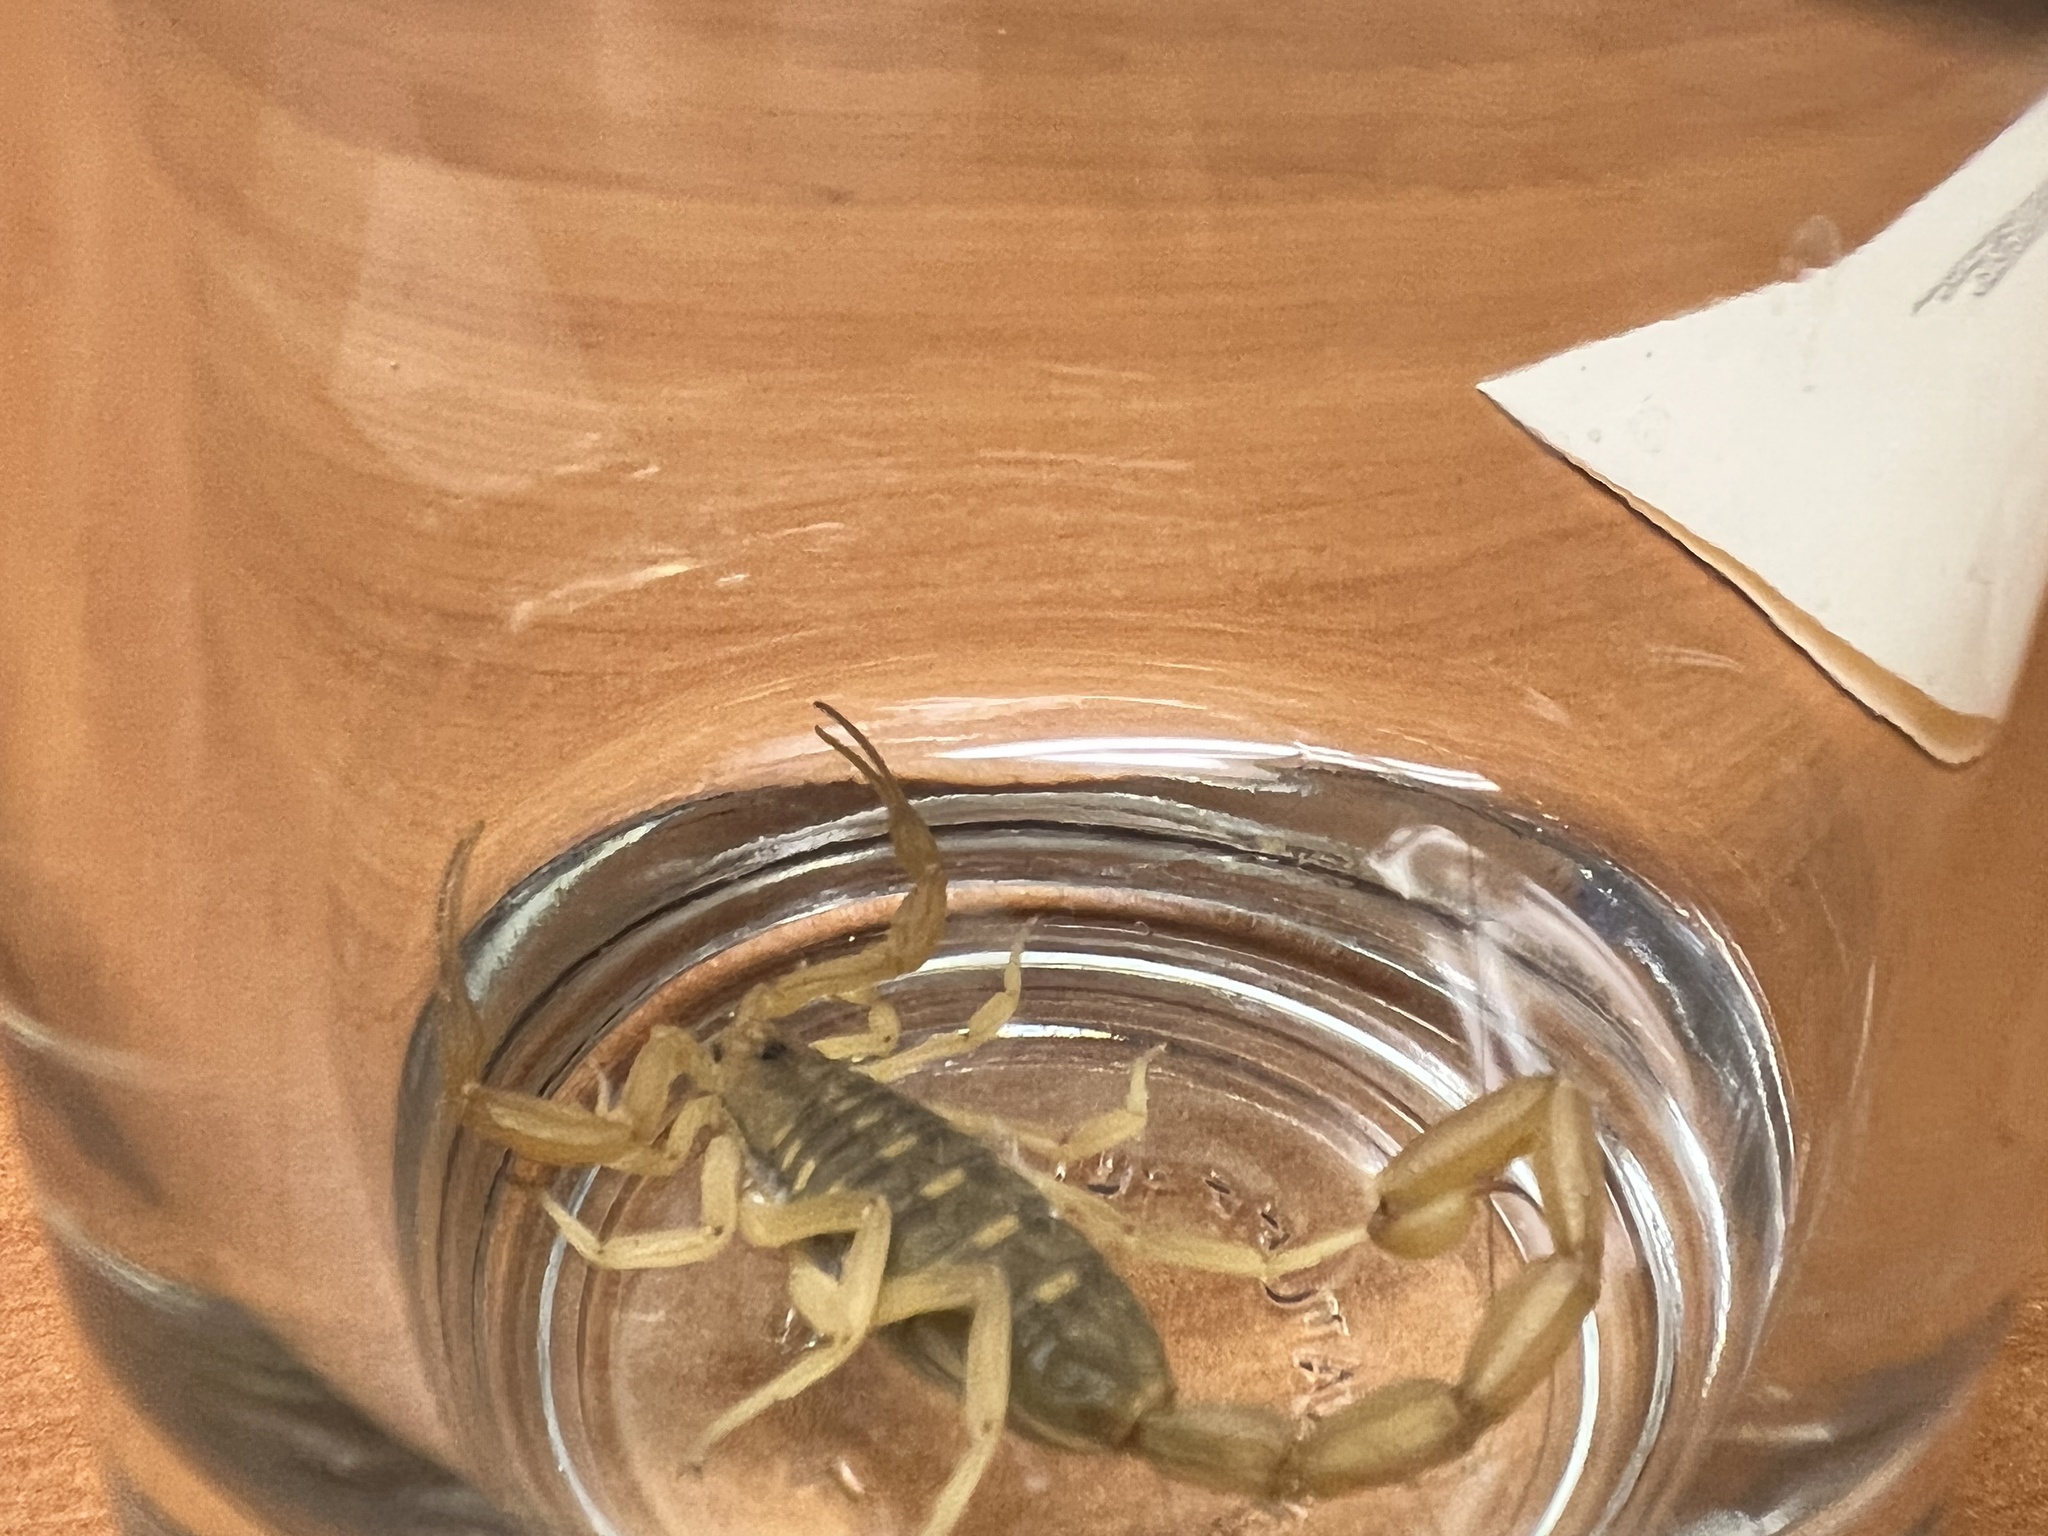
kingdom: Animalia
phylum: Arthropoda
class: Arachnida
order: Scorpiones
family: Buthidae
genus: Centruroides
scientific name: Centruroides sculpturatus
